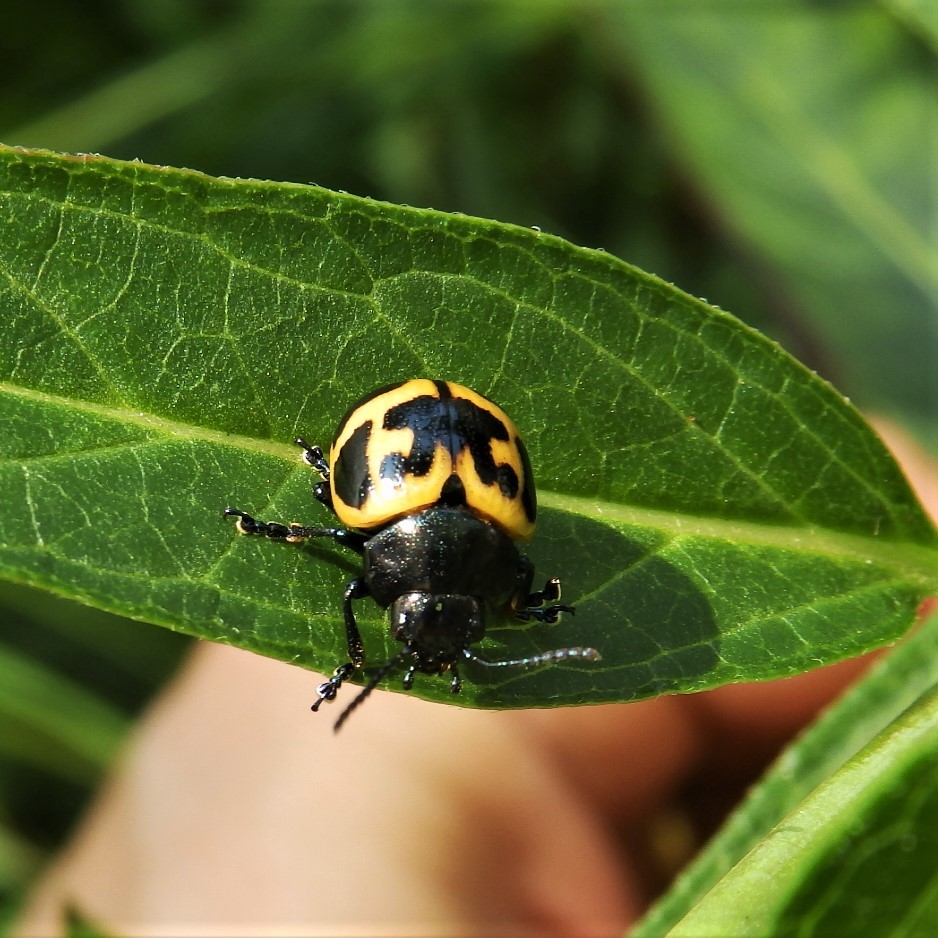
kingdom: Animalia
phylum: Arthropoda
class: Insecta
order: Coleoptera
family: Chrysomelidae
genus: Labidomera
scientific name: Labidomera clivicollis
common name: Swamp milkweed leaf beetle
